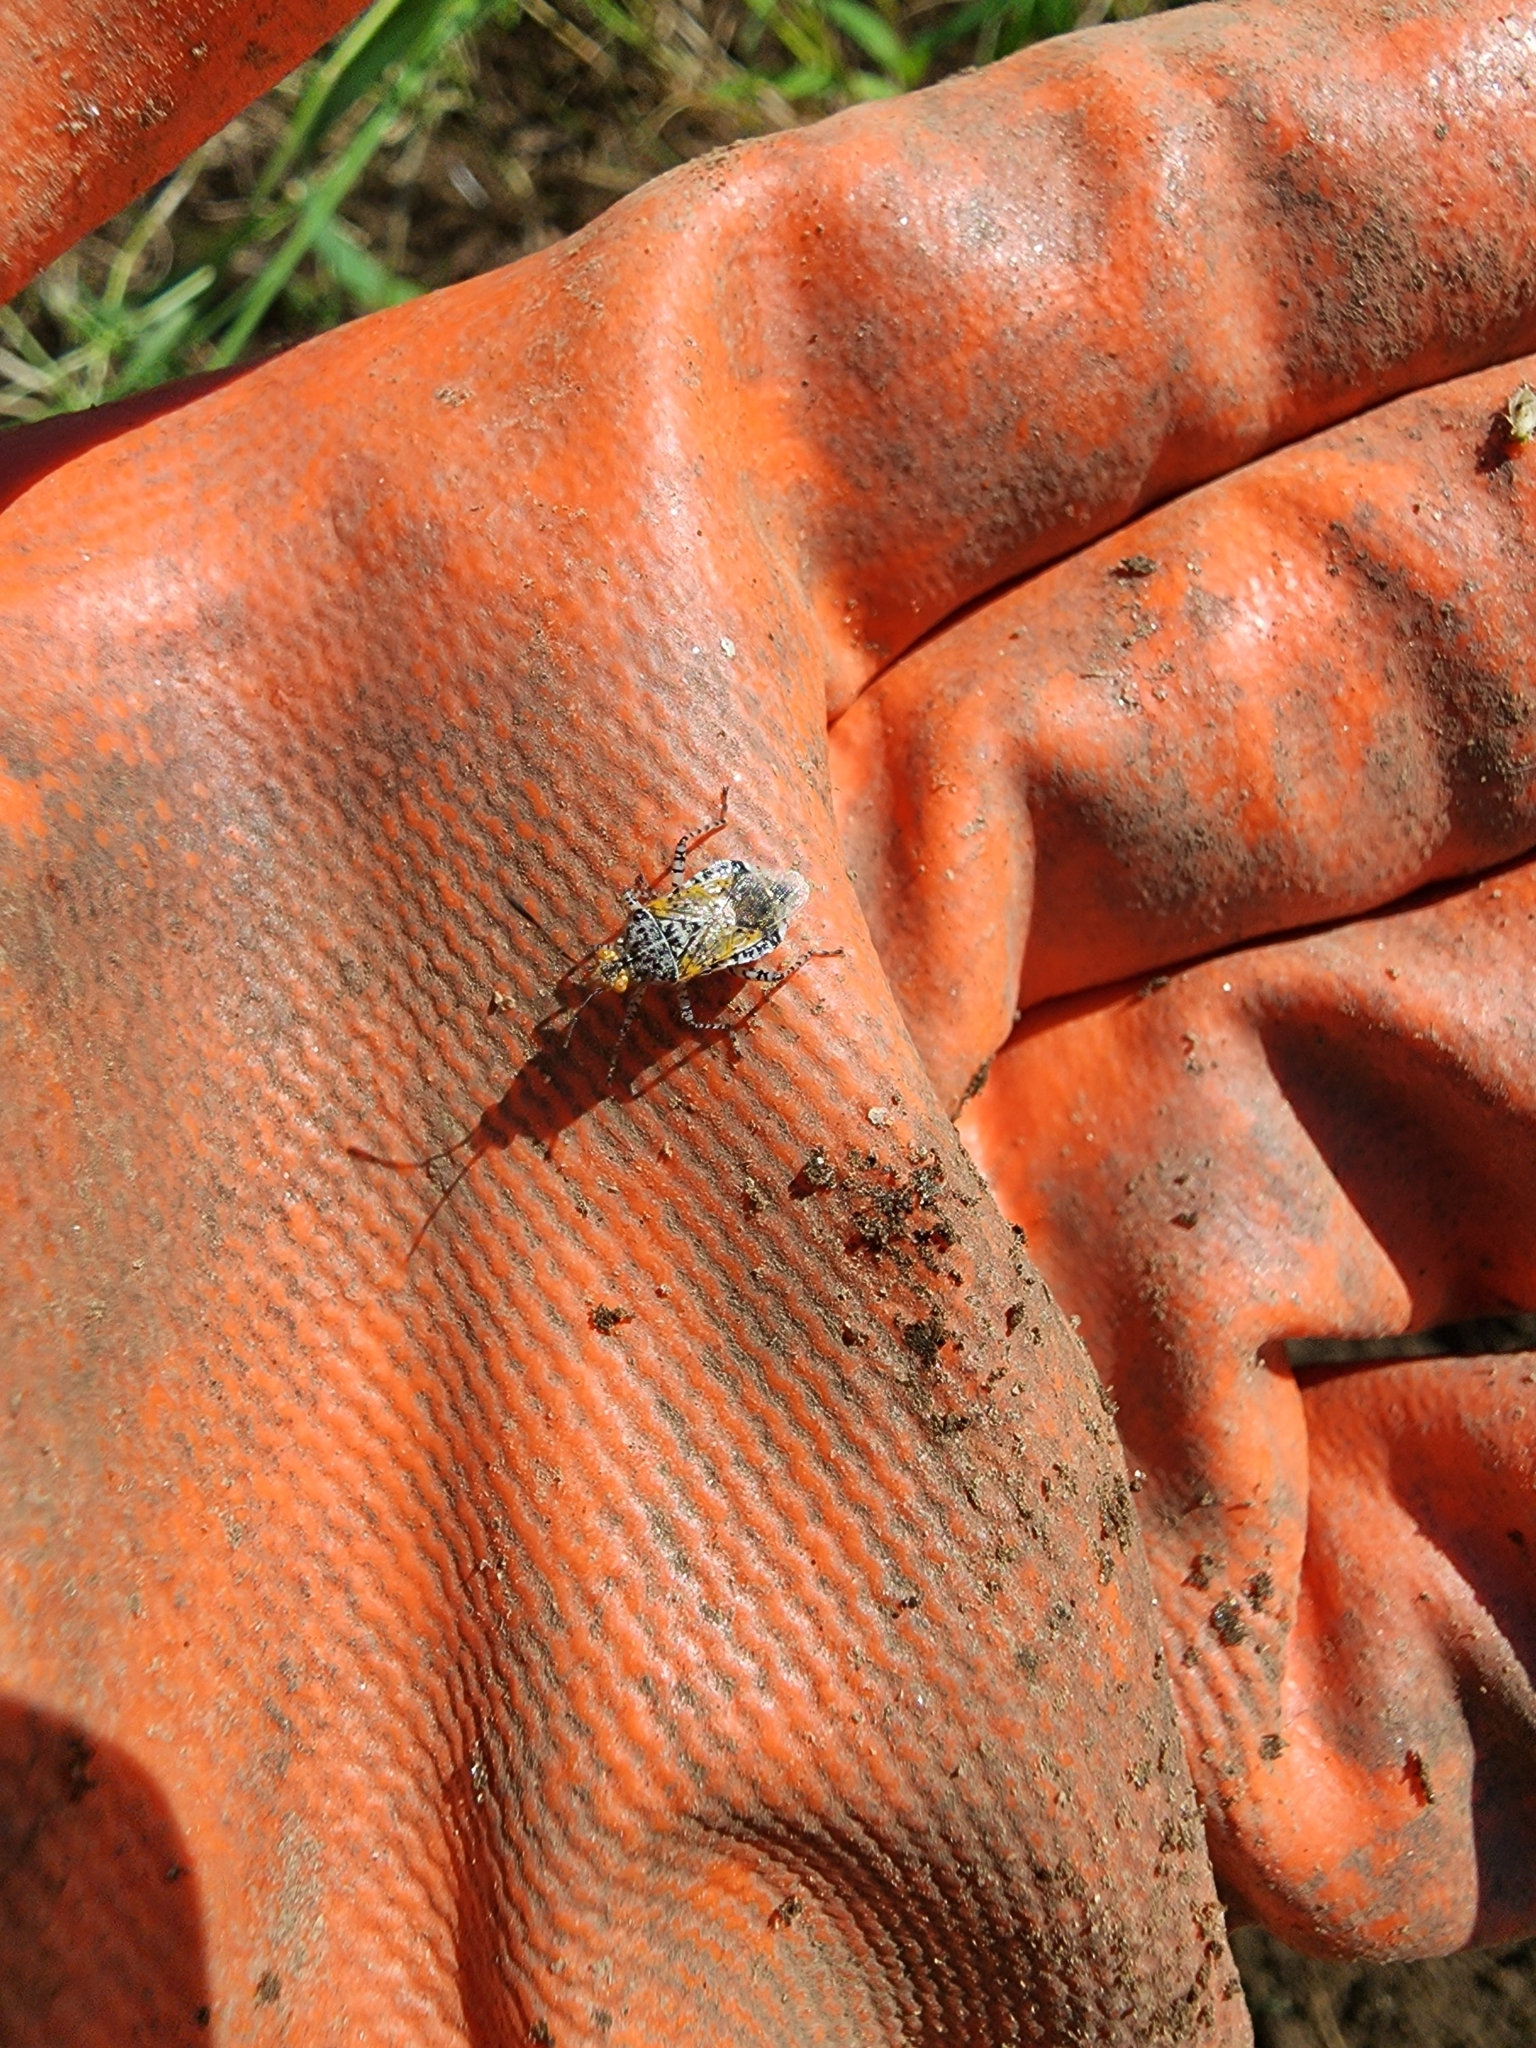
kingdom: Animalia
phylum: Arthropoda
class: Insecta
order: Hemiptera
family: Rhopalidae
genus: Niesthrea
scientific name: Niesthrea louisianica
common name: Scentless plant bug
